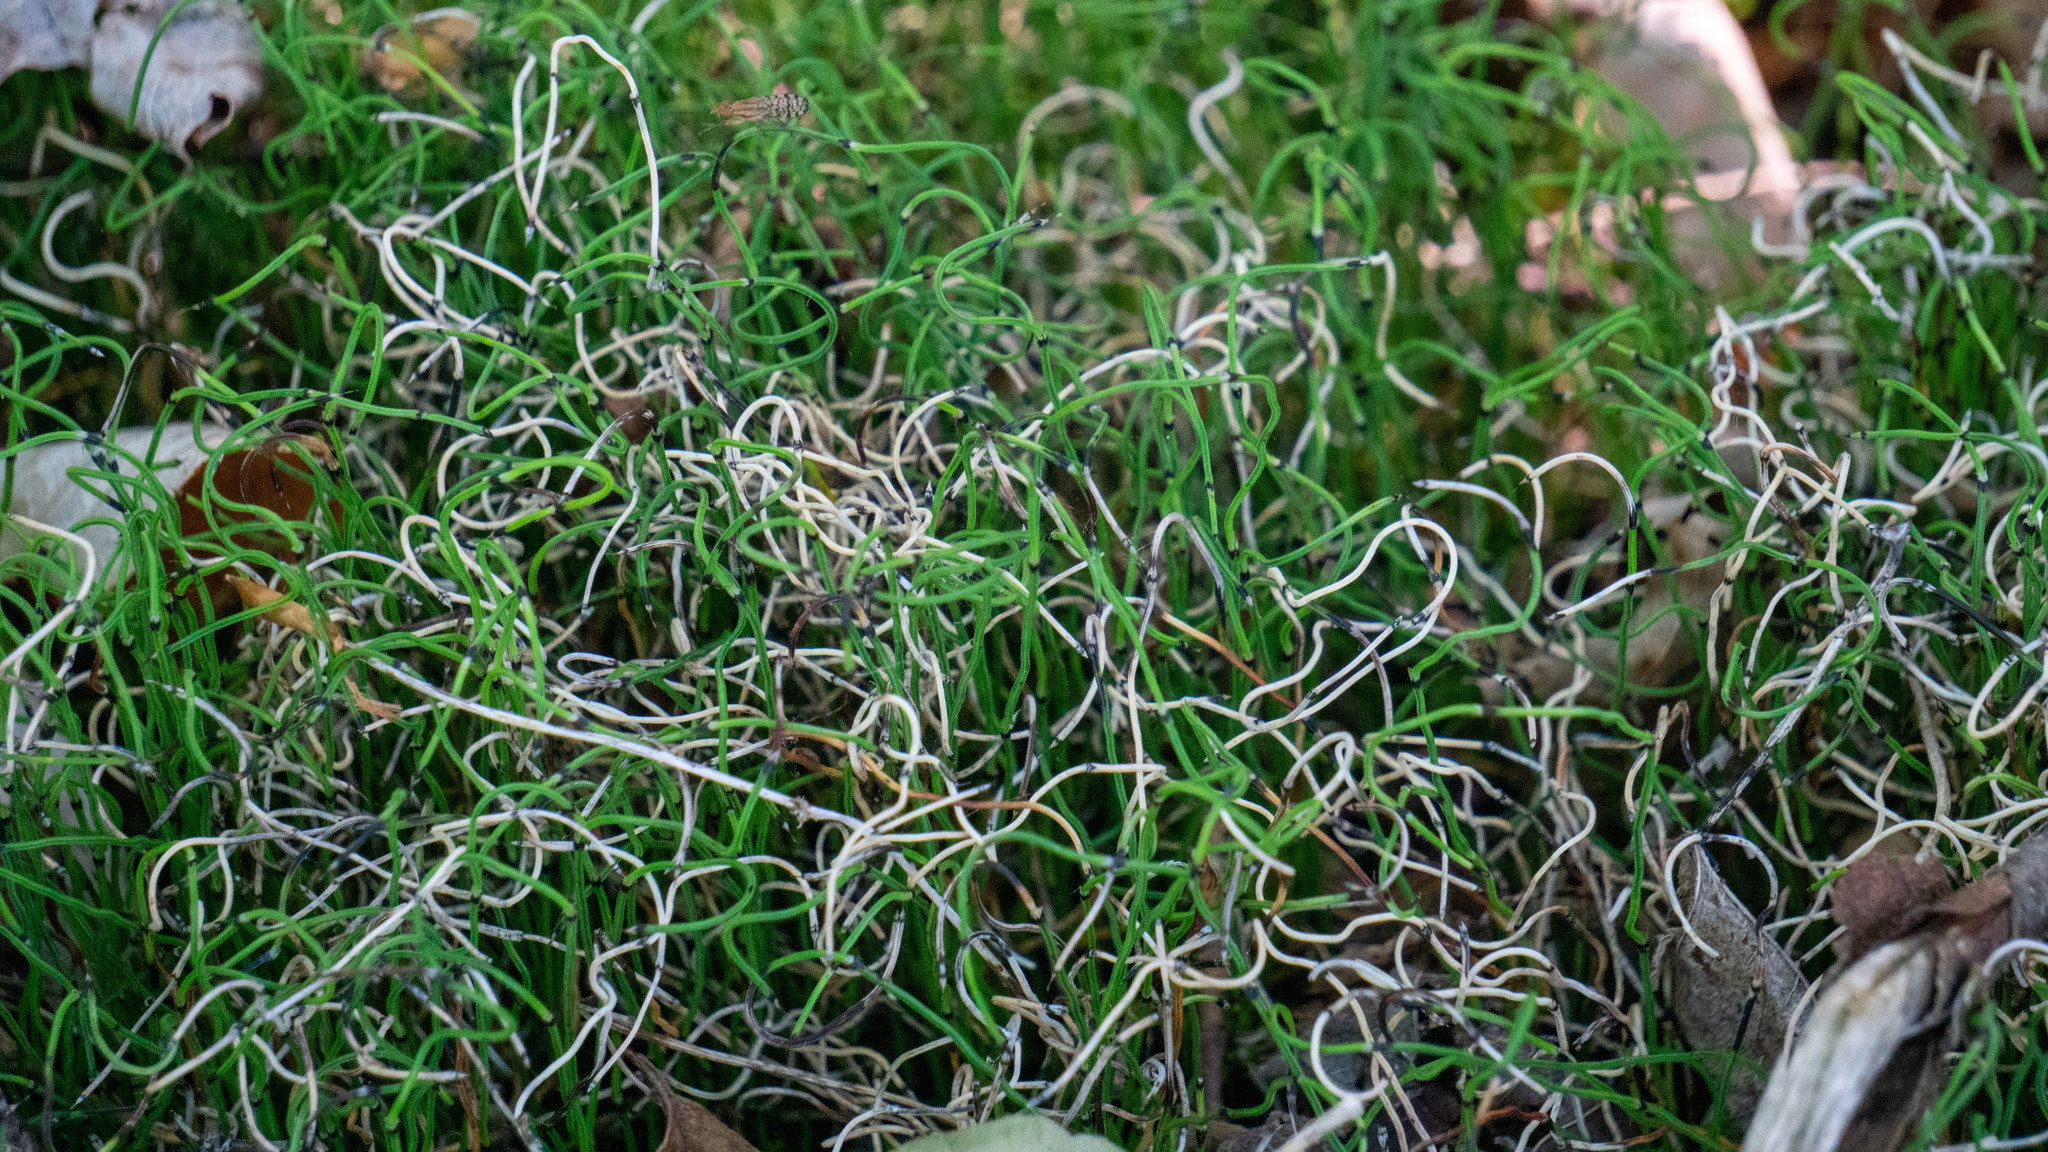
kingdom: Plantae
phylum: Tracheophyta
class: Polypodiopsida
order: Equisetales
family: Equisetaceae
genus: Equisetum
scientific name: Equisetum scirpoides
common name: Delicate horsetail
